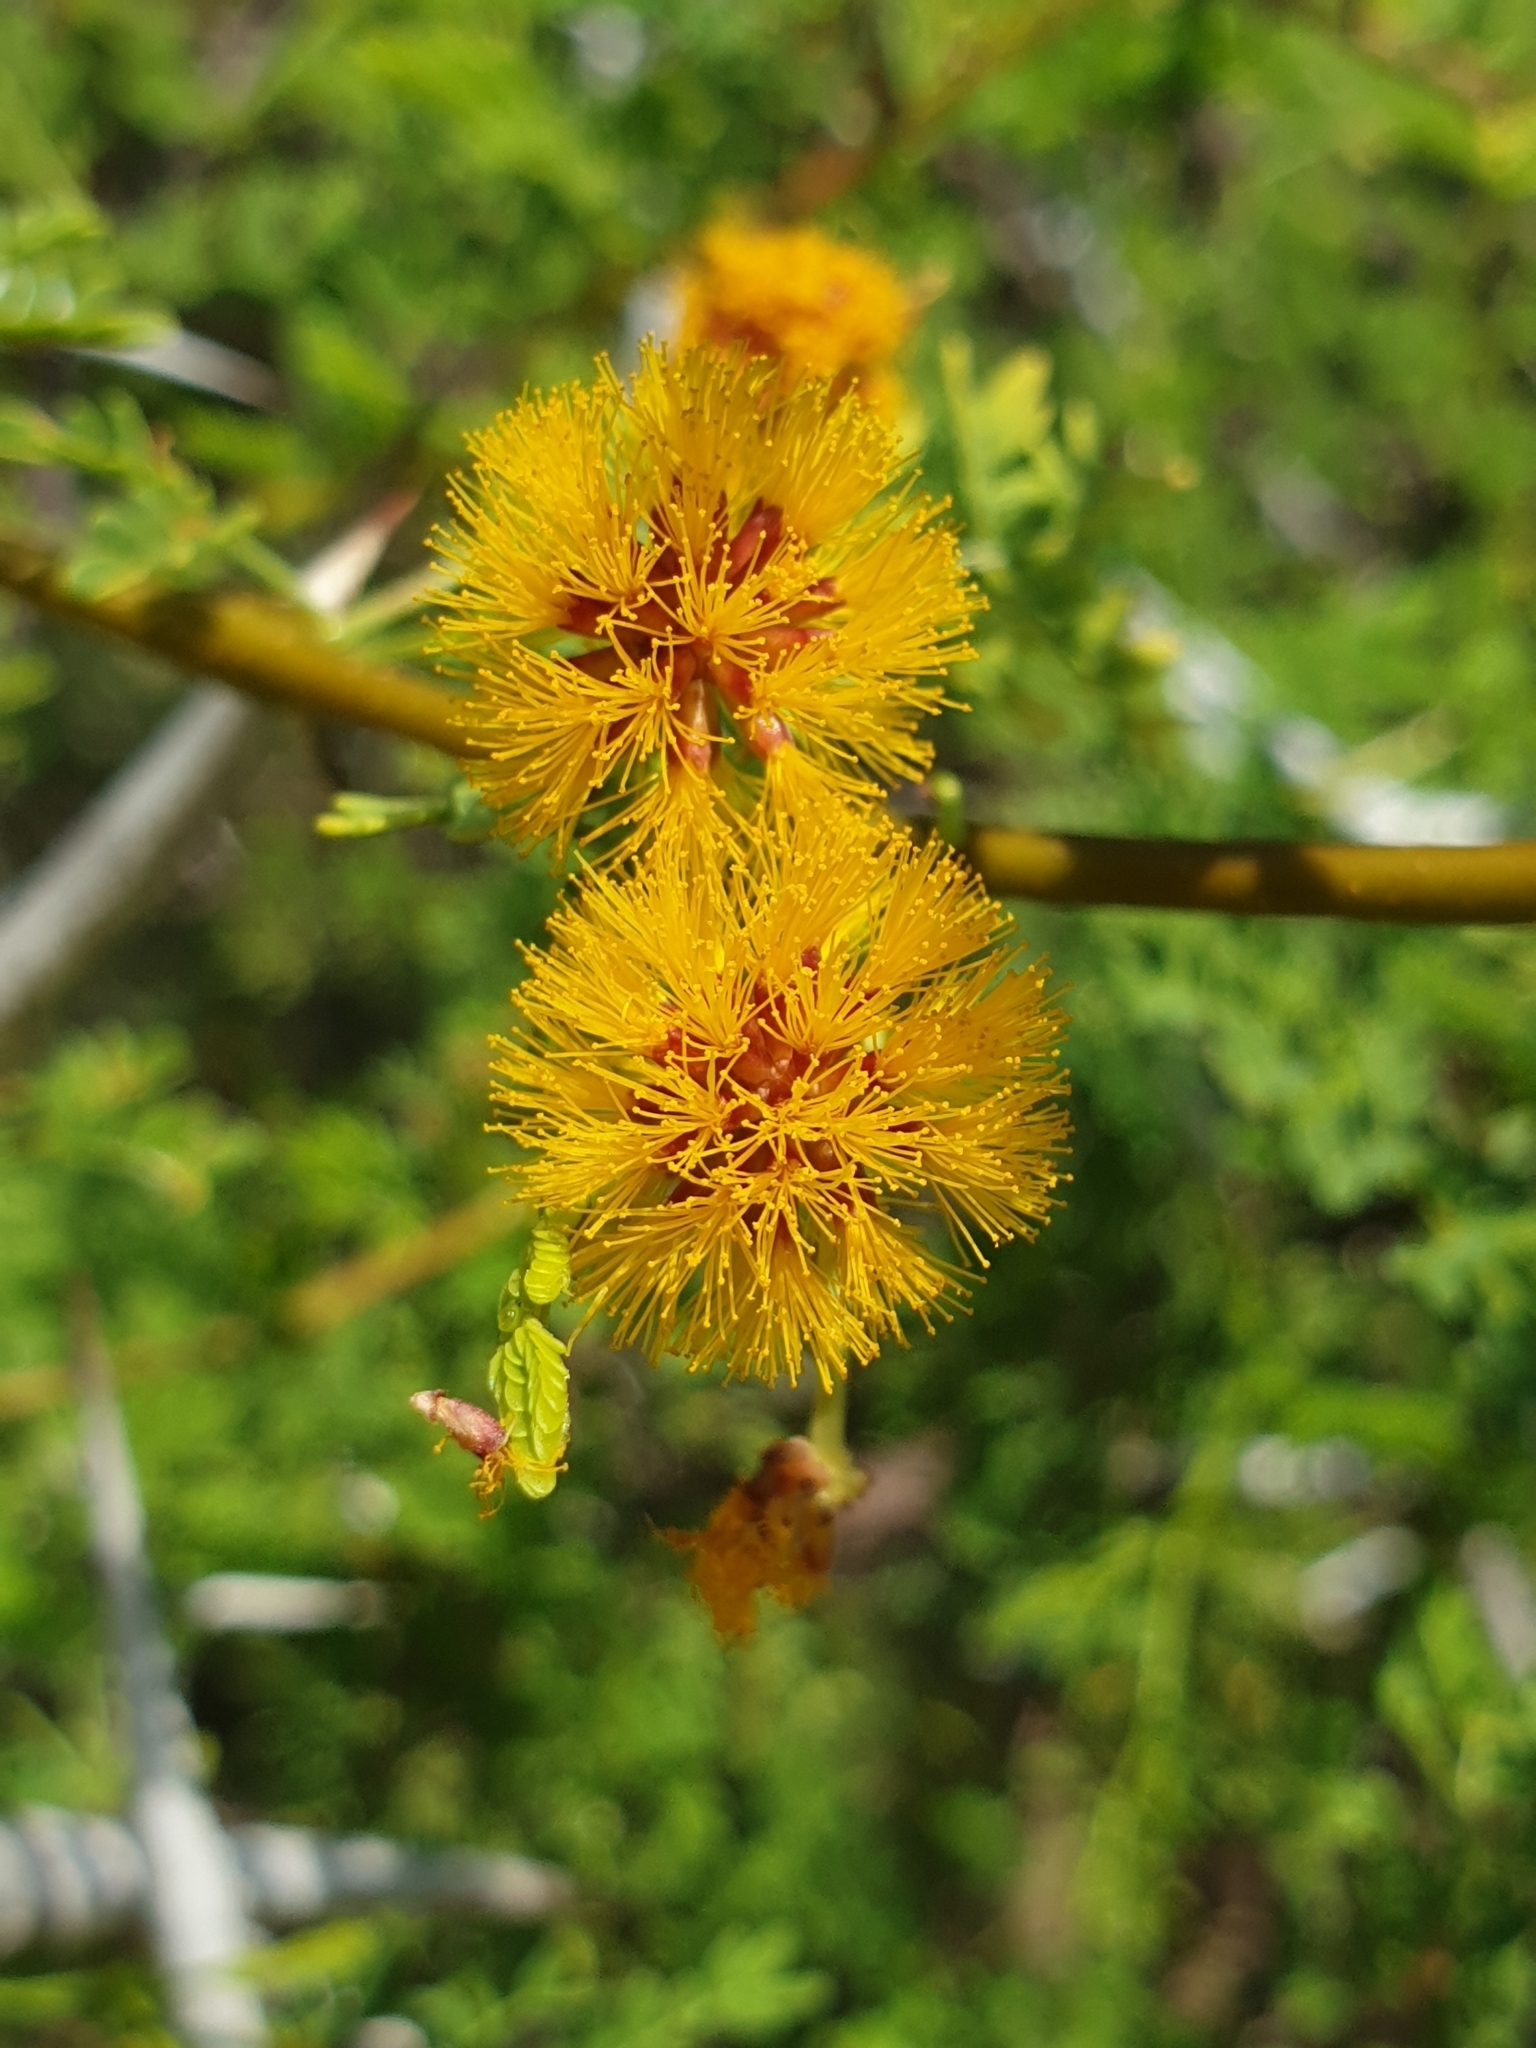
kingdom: Plantae
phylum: Tracheophyta
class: Magnoliopsida
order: Fabales
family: Fabaceae
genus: Vachellia
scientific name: Vachellia eburnea
